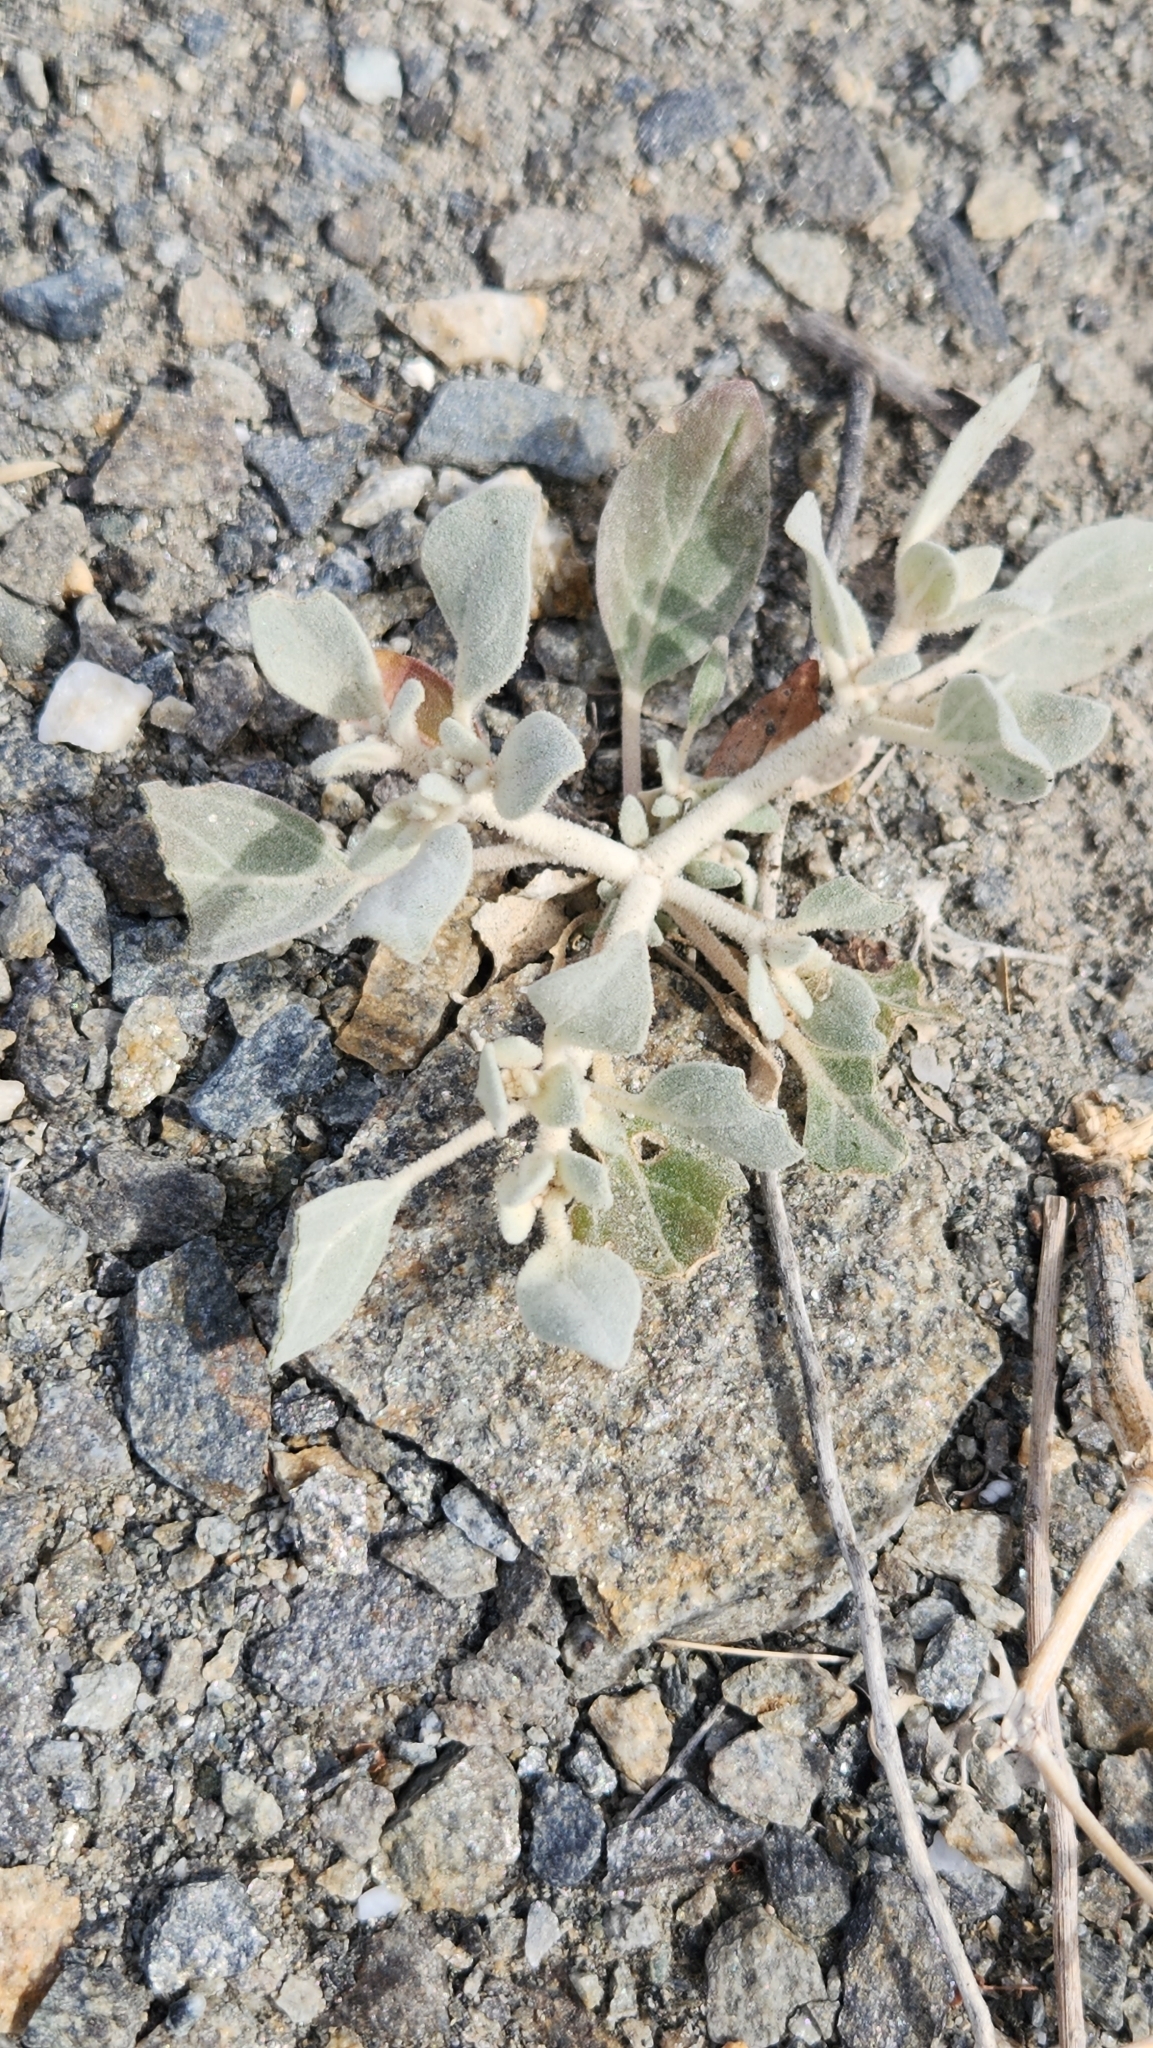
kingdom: Plantae
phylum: Tracheophyta
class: Magnoliopsida
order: Caryophyllales
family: Amaranthaceae
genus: Tidestromia
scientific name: Tidestromia suffruticosa
